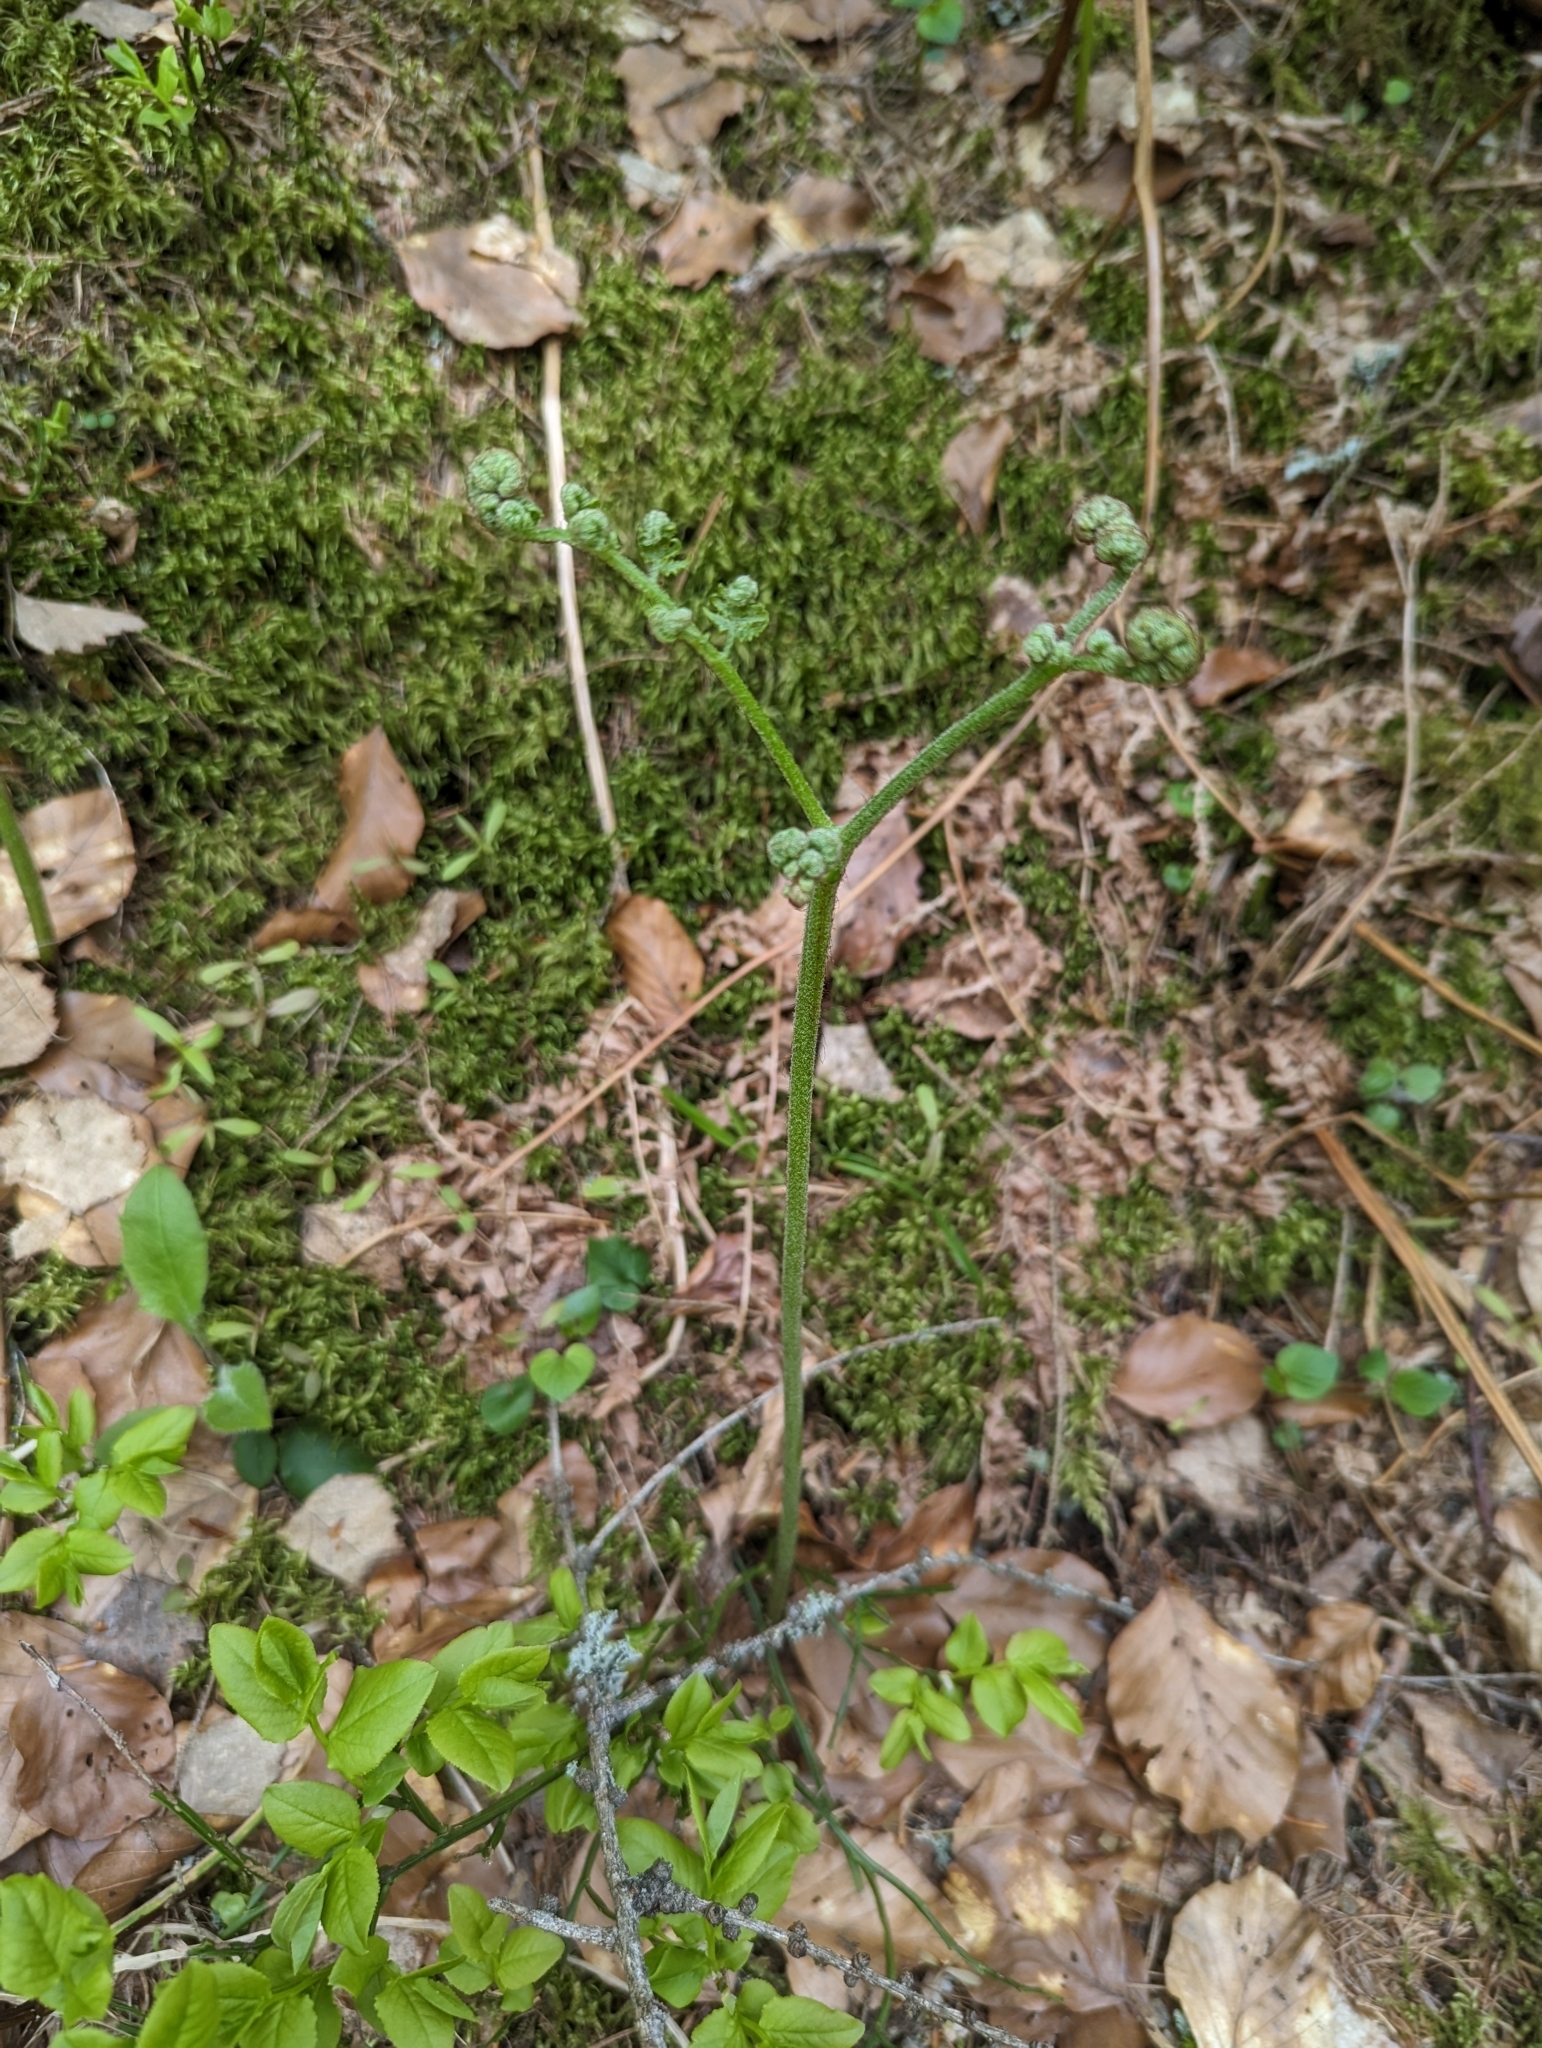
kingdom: Plantae
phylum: Tracheophyta
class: Polypodiopsida
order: Polypodiales
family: Dennstaedtiaceae
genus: Pteridium
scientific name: Pteridium aquilinum
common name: Bracken
